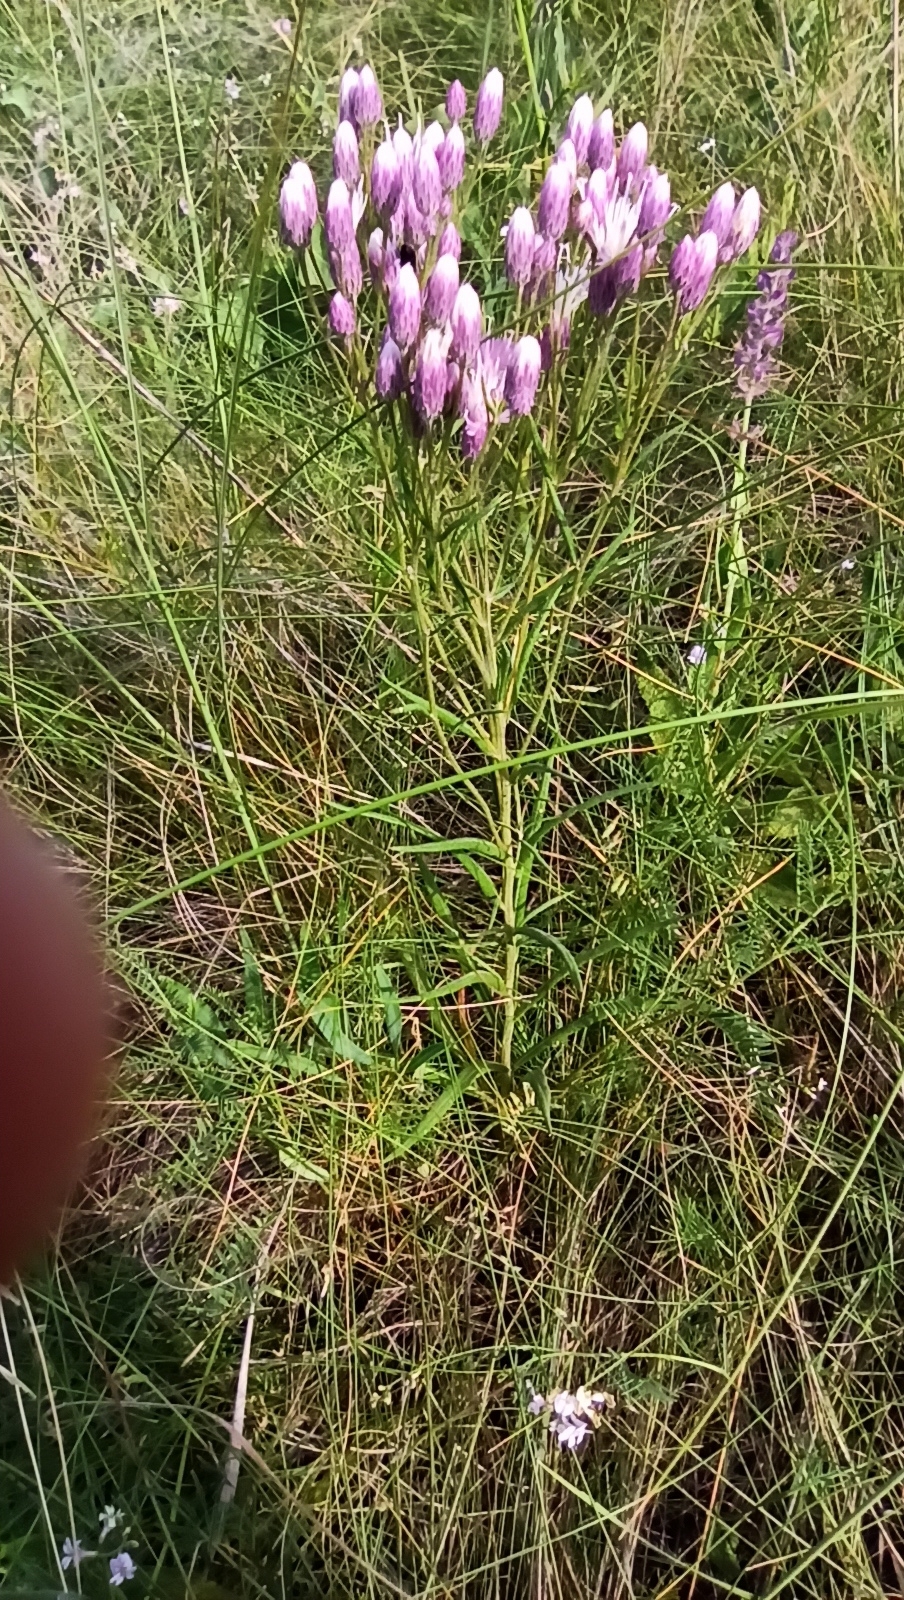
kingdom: Plantae
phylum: Tracheophyta
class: Magnoliopsida
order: Asterales
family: Asteraceae
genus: Jurinea
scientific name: Jurinea multiflora
